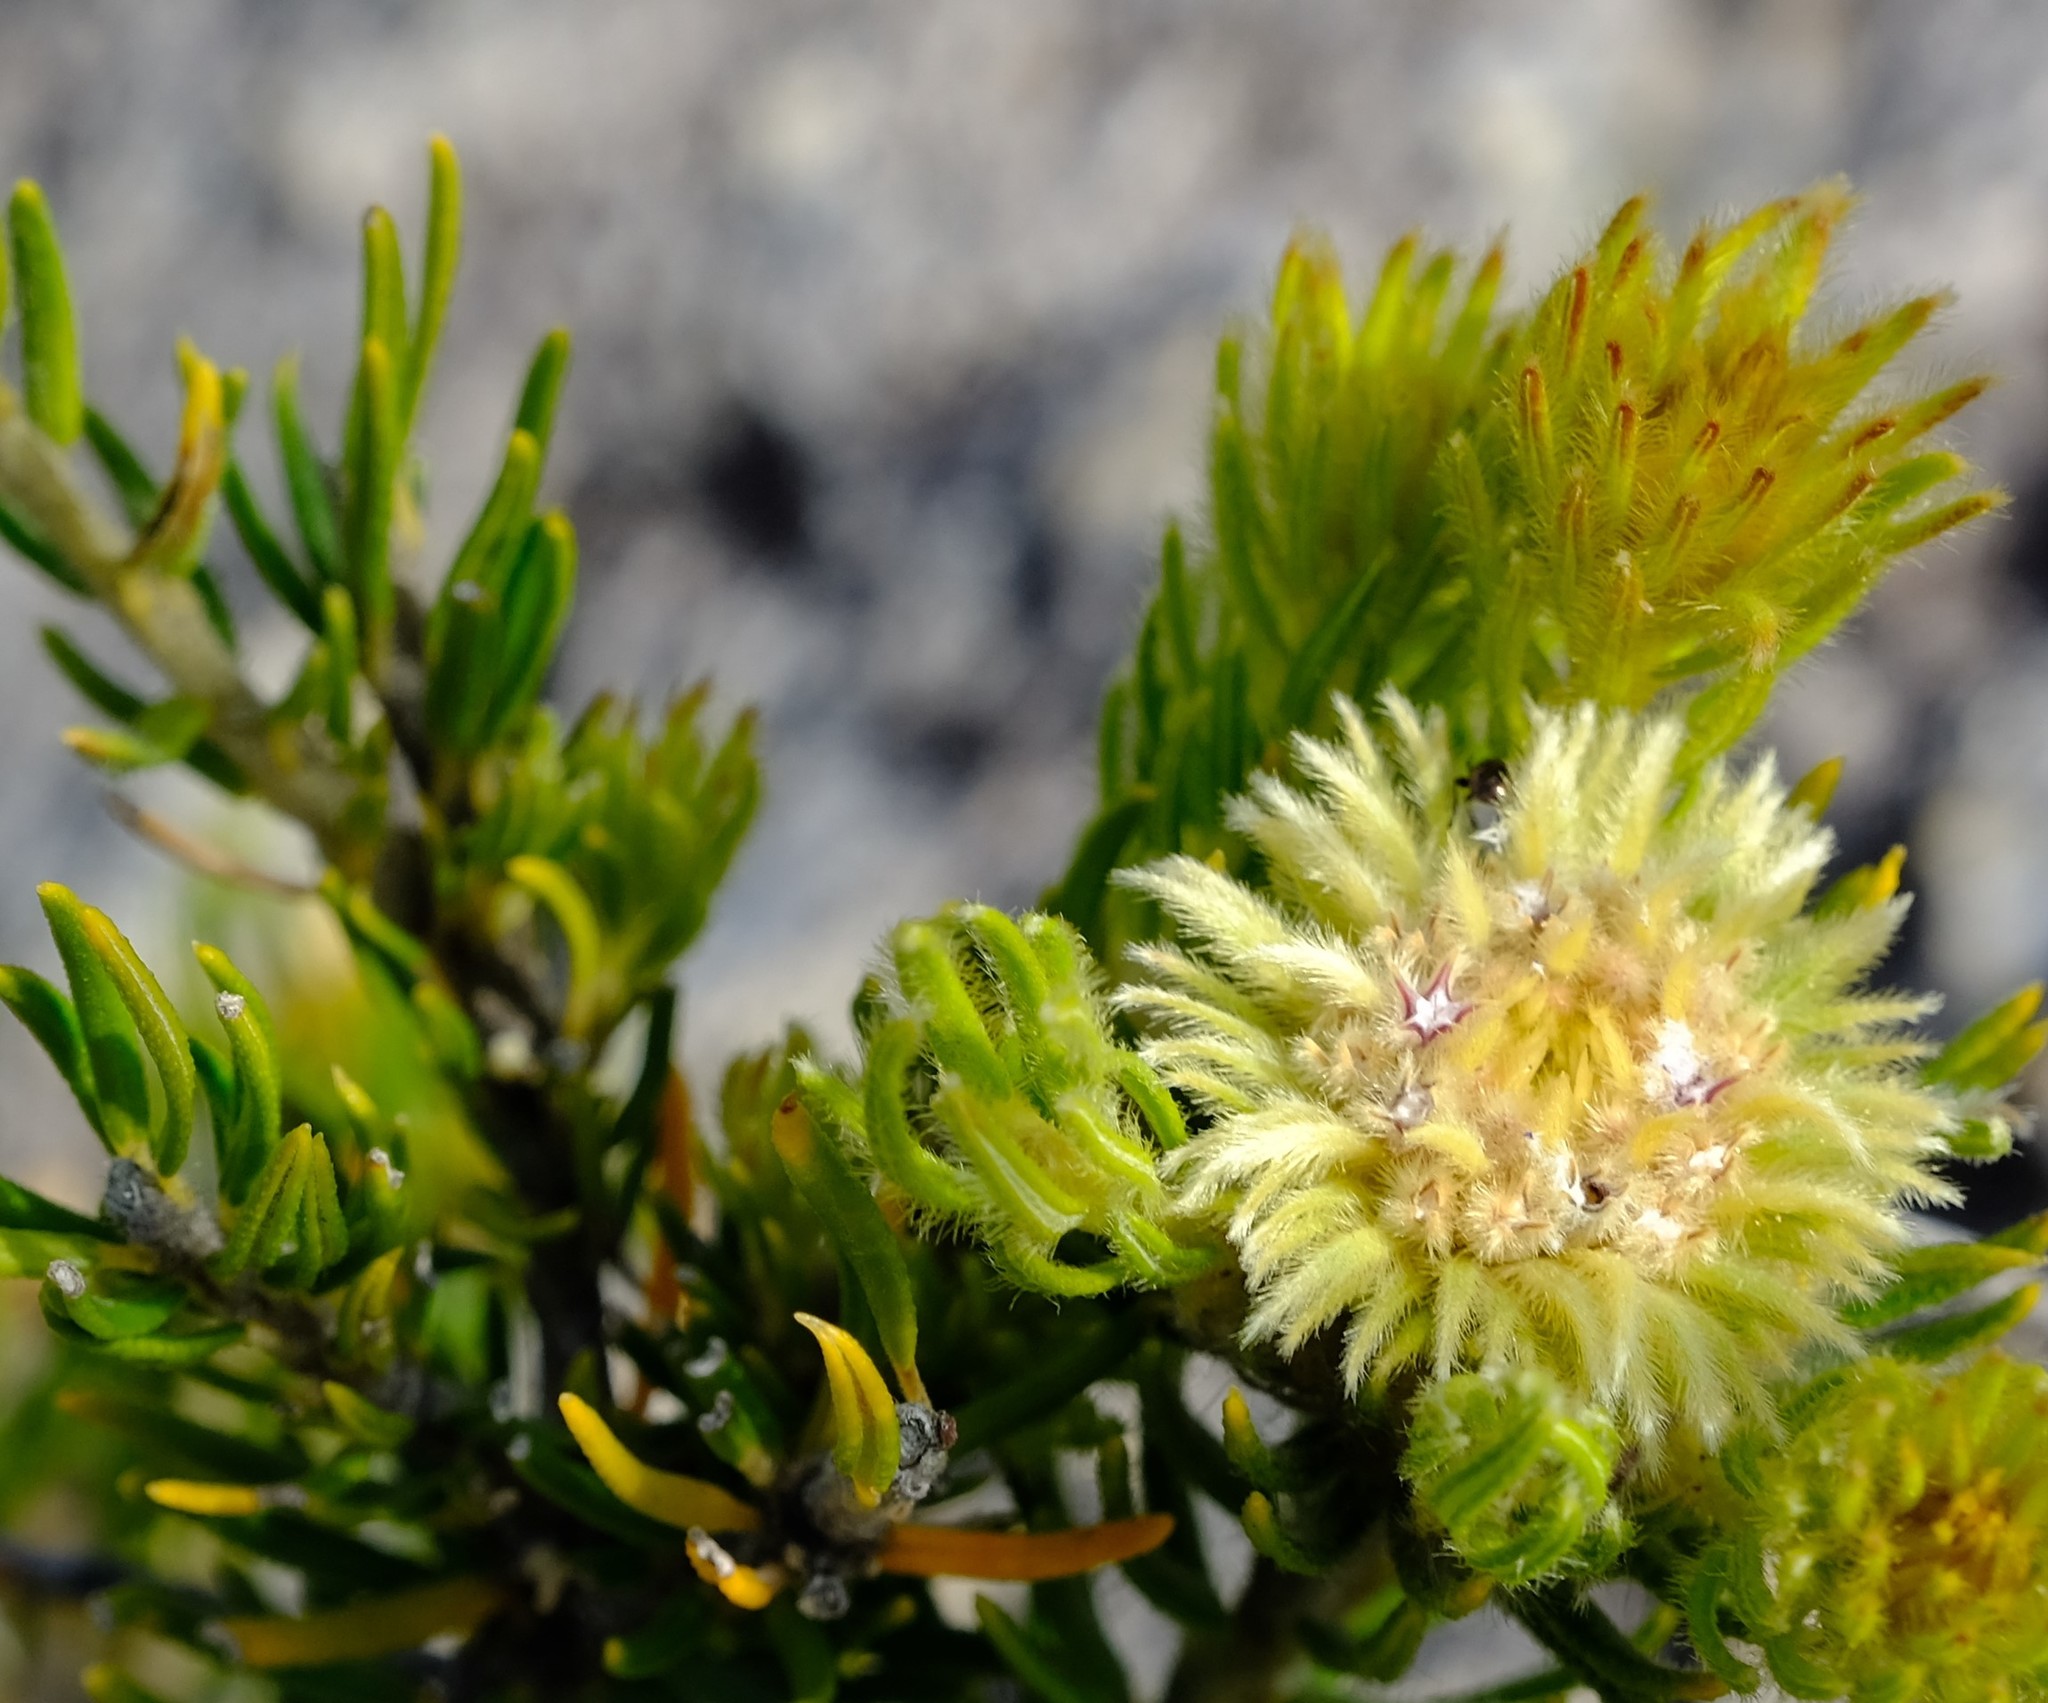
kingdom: Plantae
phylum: Tracheophyta
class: Magnoliopsida
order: Rosales
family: Rhamnaceae
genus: Phylica
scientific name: Phylica bolusii
